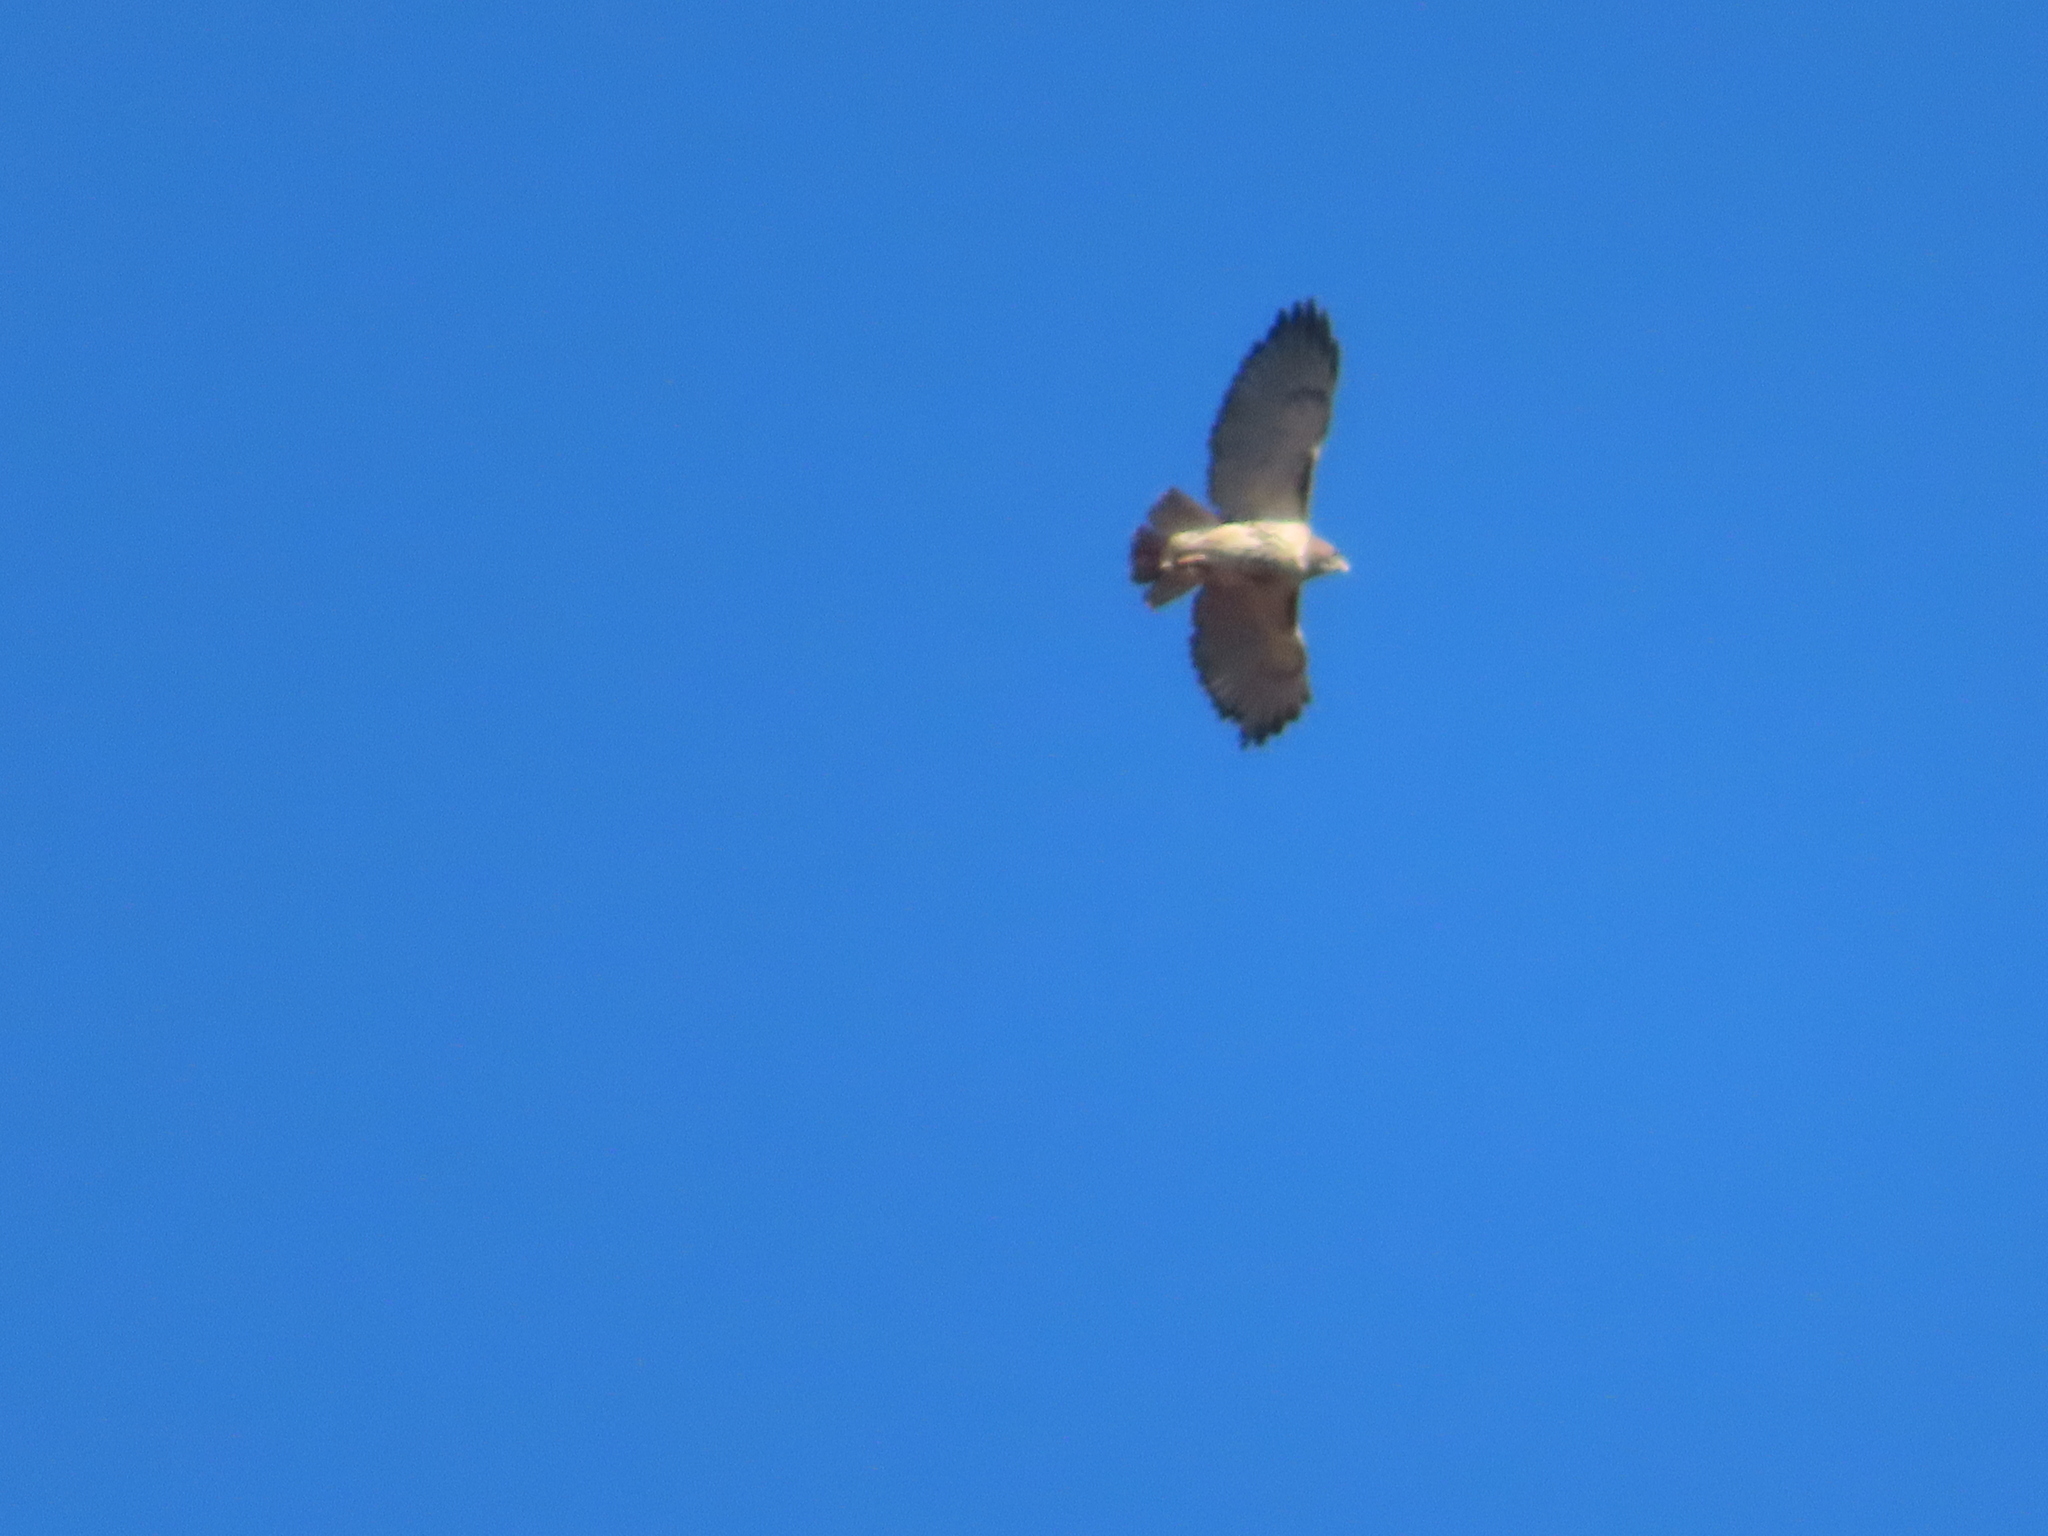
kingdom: Animalia
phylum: Chordata
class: Aves
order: Accipitriformes
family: Accipitridae
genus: Buteo
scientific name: Buteo jamaicensis
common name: Red-tailed hawk
